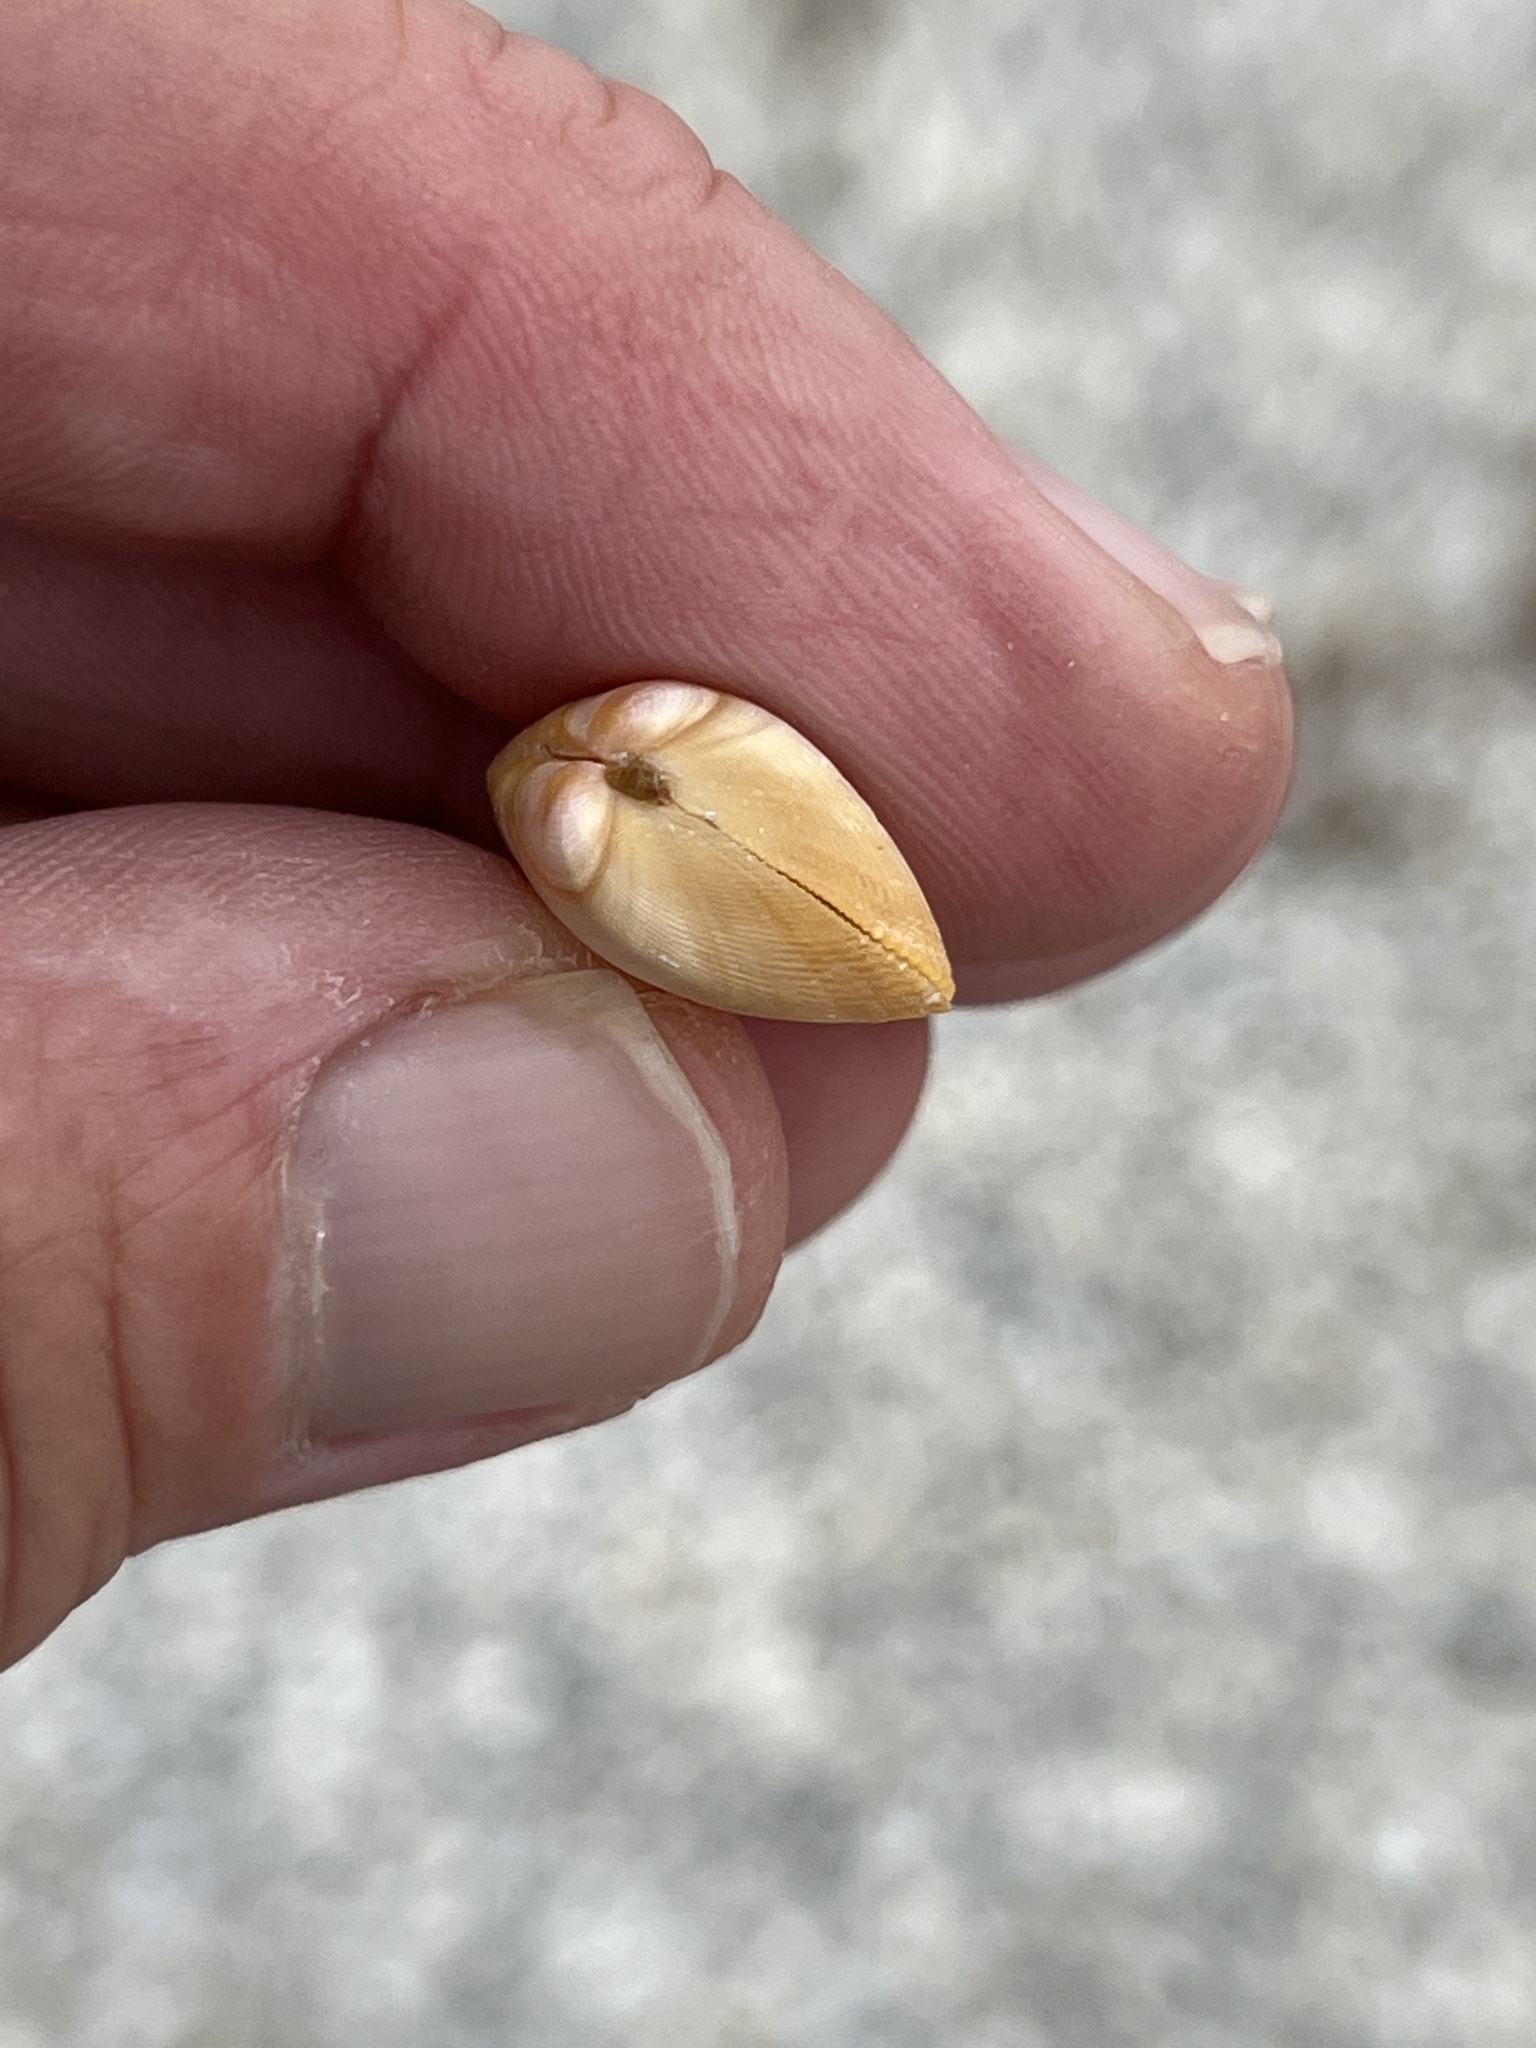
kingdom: Animalia
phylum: Mollusca
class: Bivalvia
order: Cardiida
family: Donacidae
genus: Donax
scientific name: Donax variabilis
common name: Butterfly shell
